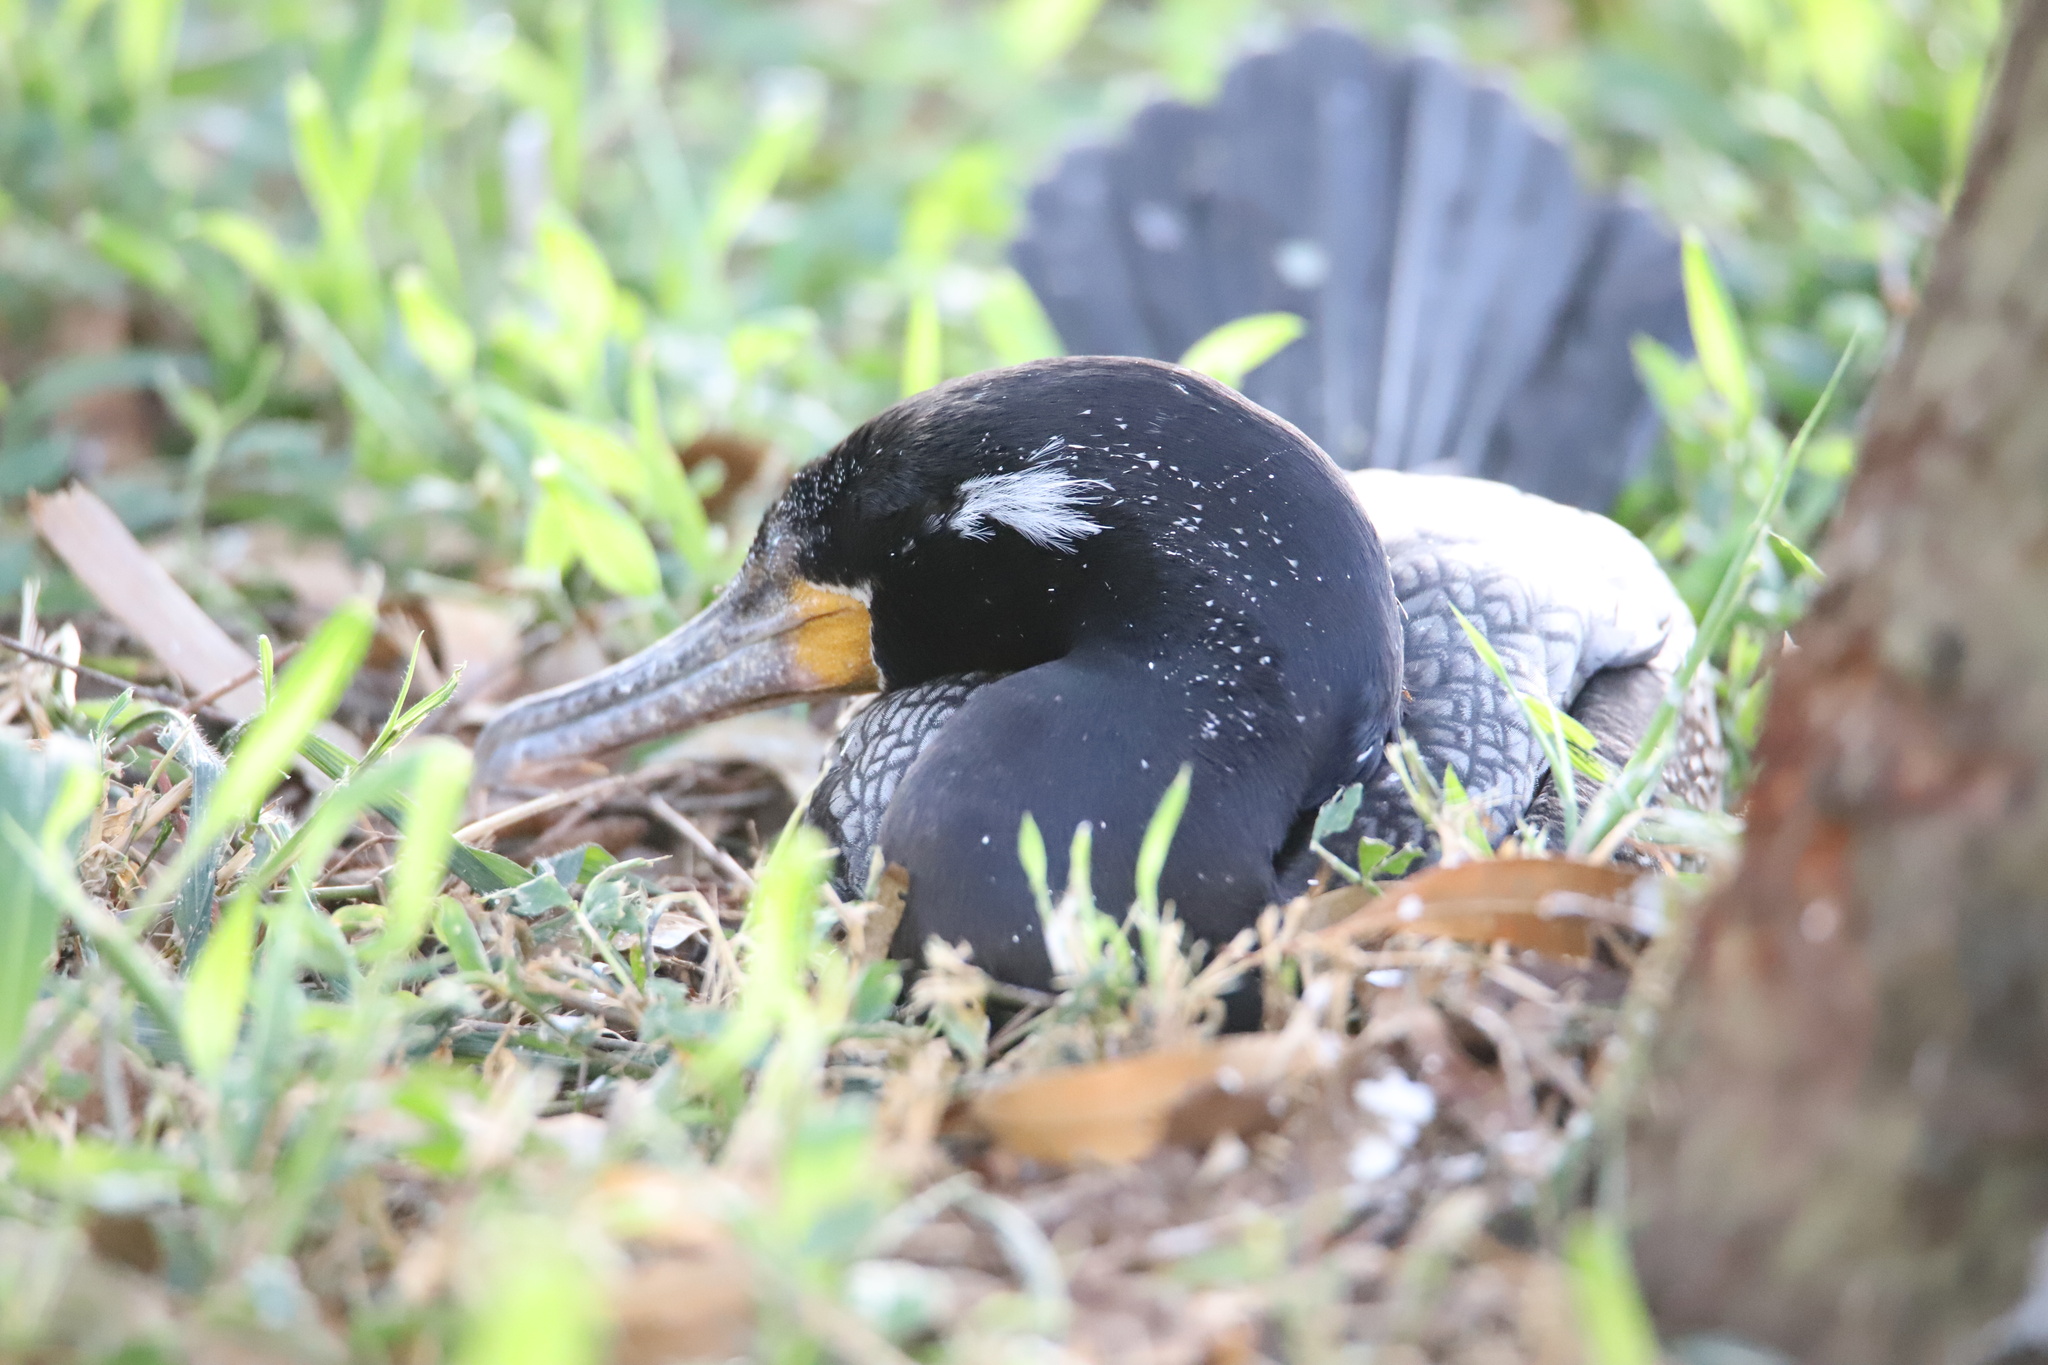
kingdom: Animalia
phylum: Chordata
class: Aves
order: Suliformes
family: Phalacrocoracidae
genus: Phalacrocorax
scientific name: Phalacrocorax brasilianus
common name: Neotropic cormorant
